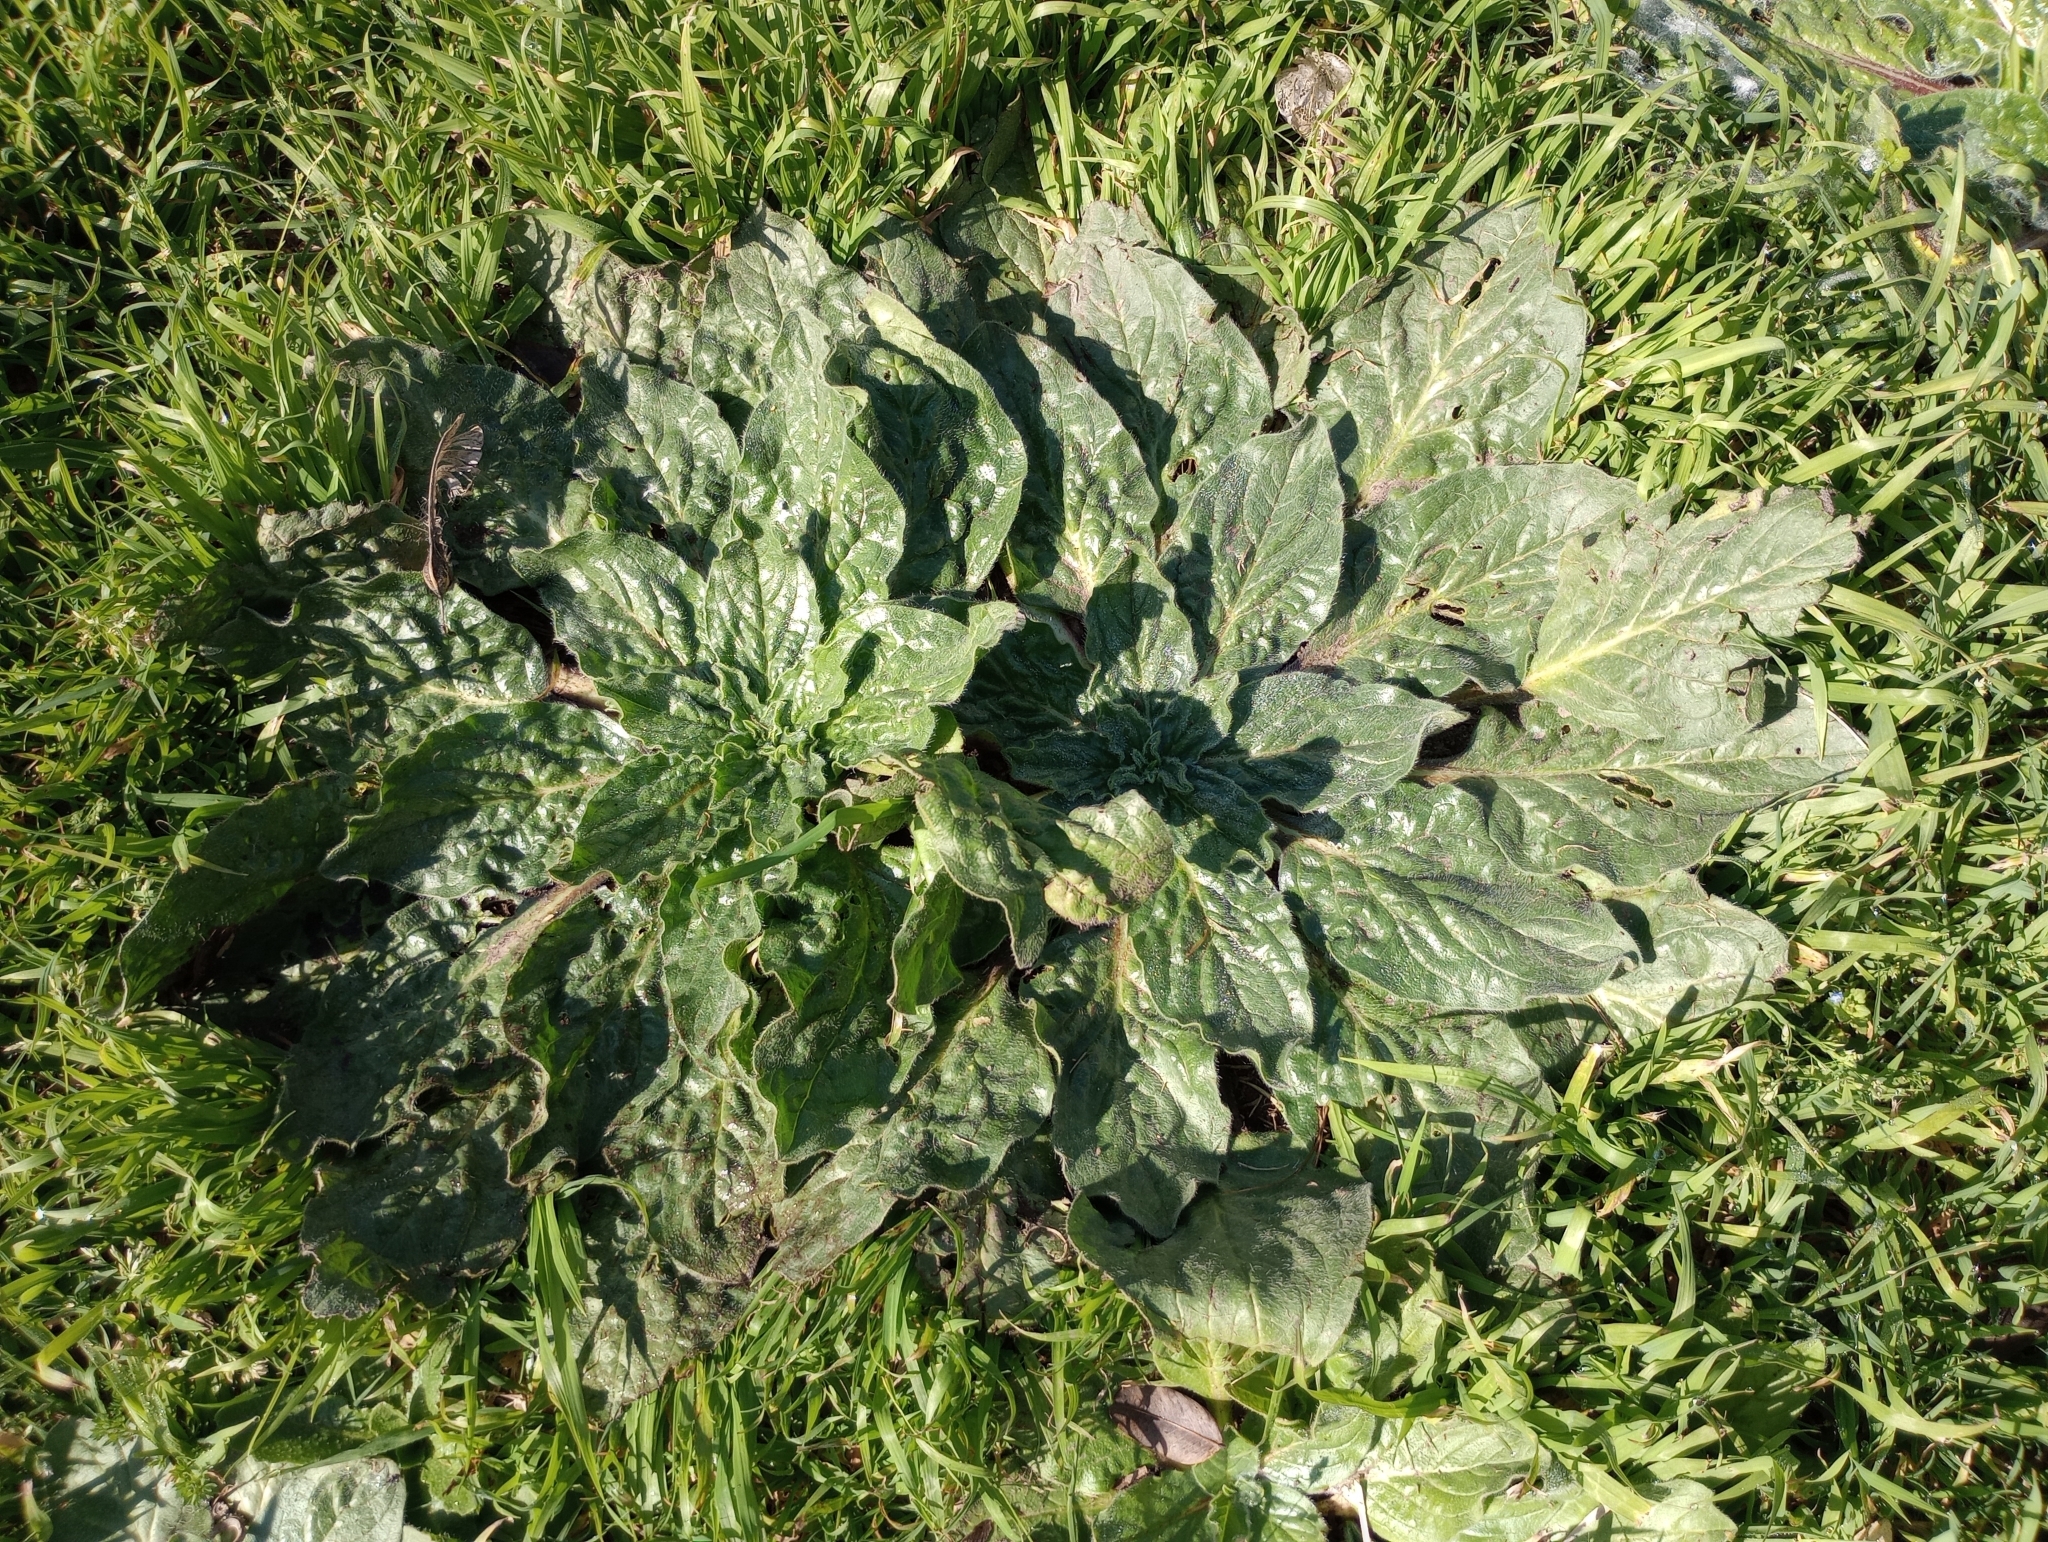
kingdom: Plantae
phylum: Tracheophyta
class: Magnoliopsida
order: Boraginales
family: Boraginaceae
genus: Echium
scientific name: Echium plantagineum
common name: Purple viper's-bugloss
